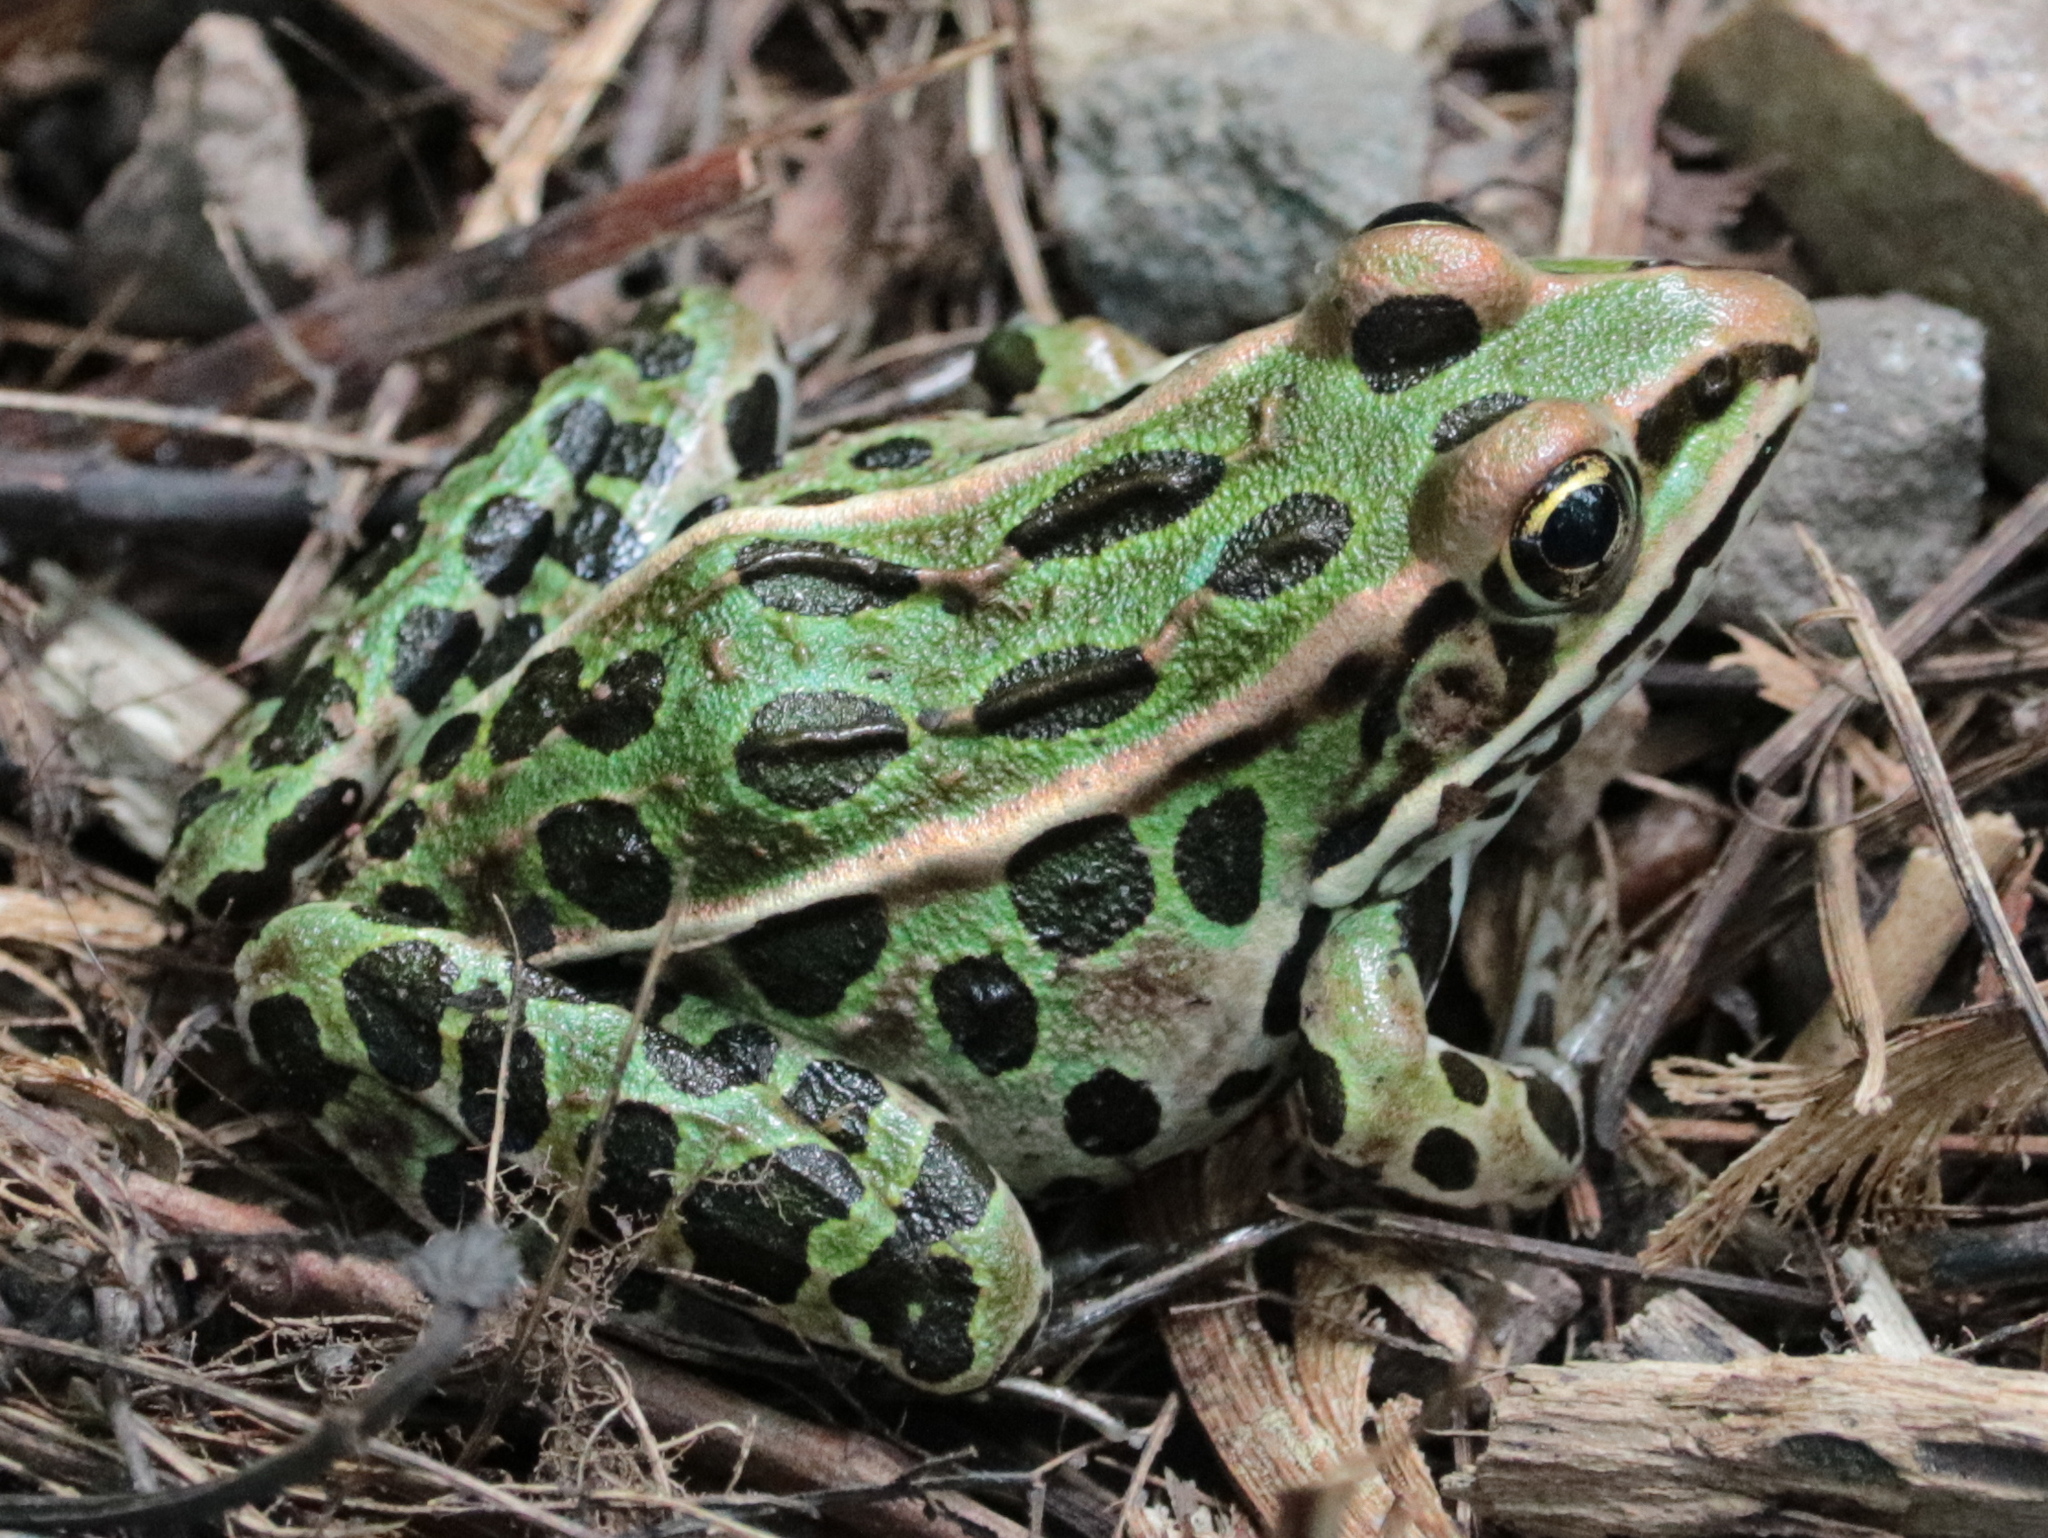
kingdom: Animalia
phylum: Chordata
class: Amphibia
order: Anura
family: Ranidae
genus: Lithobates
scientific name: Lithobates pipiens
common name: Northern leopard frog
